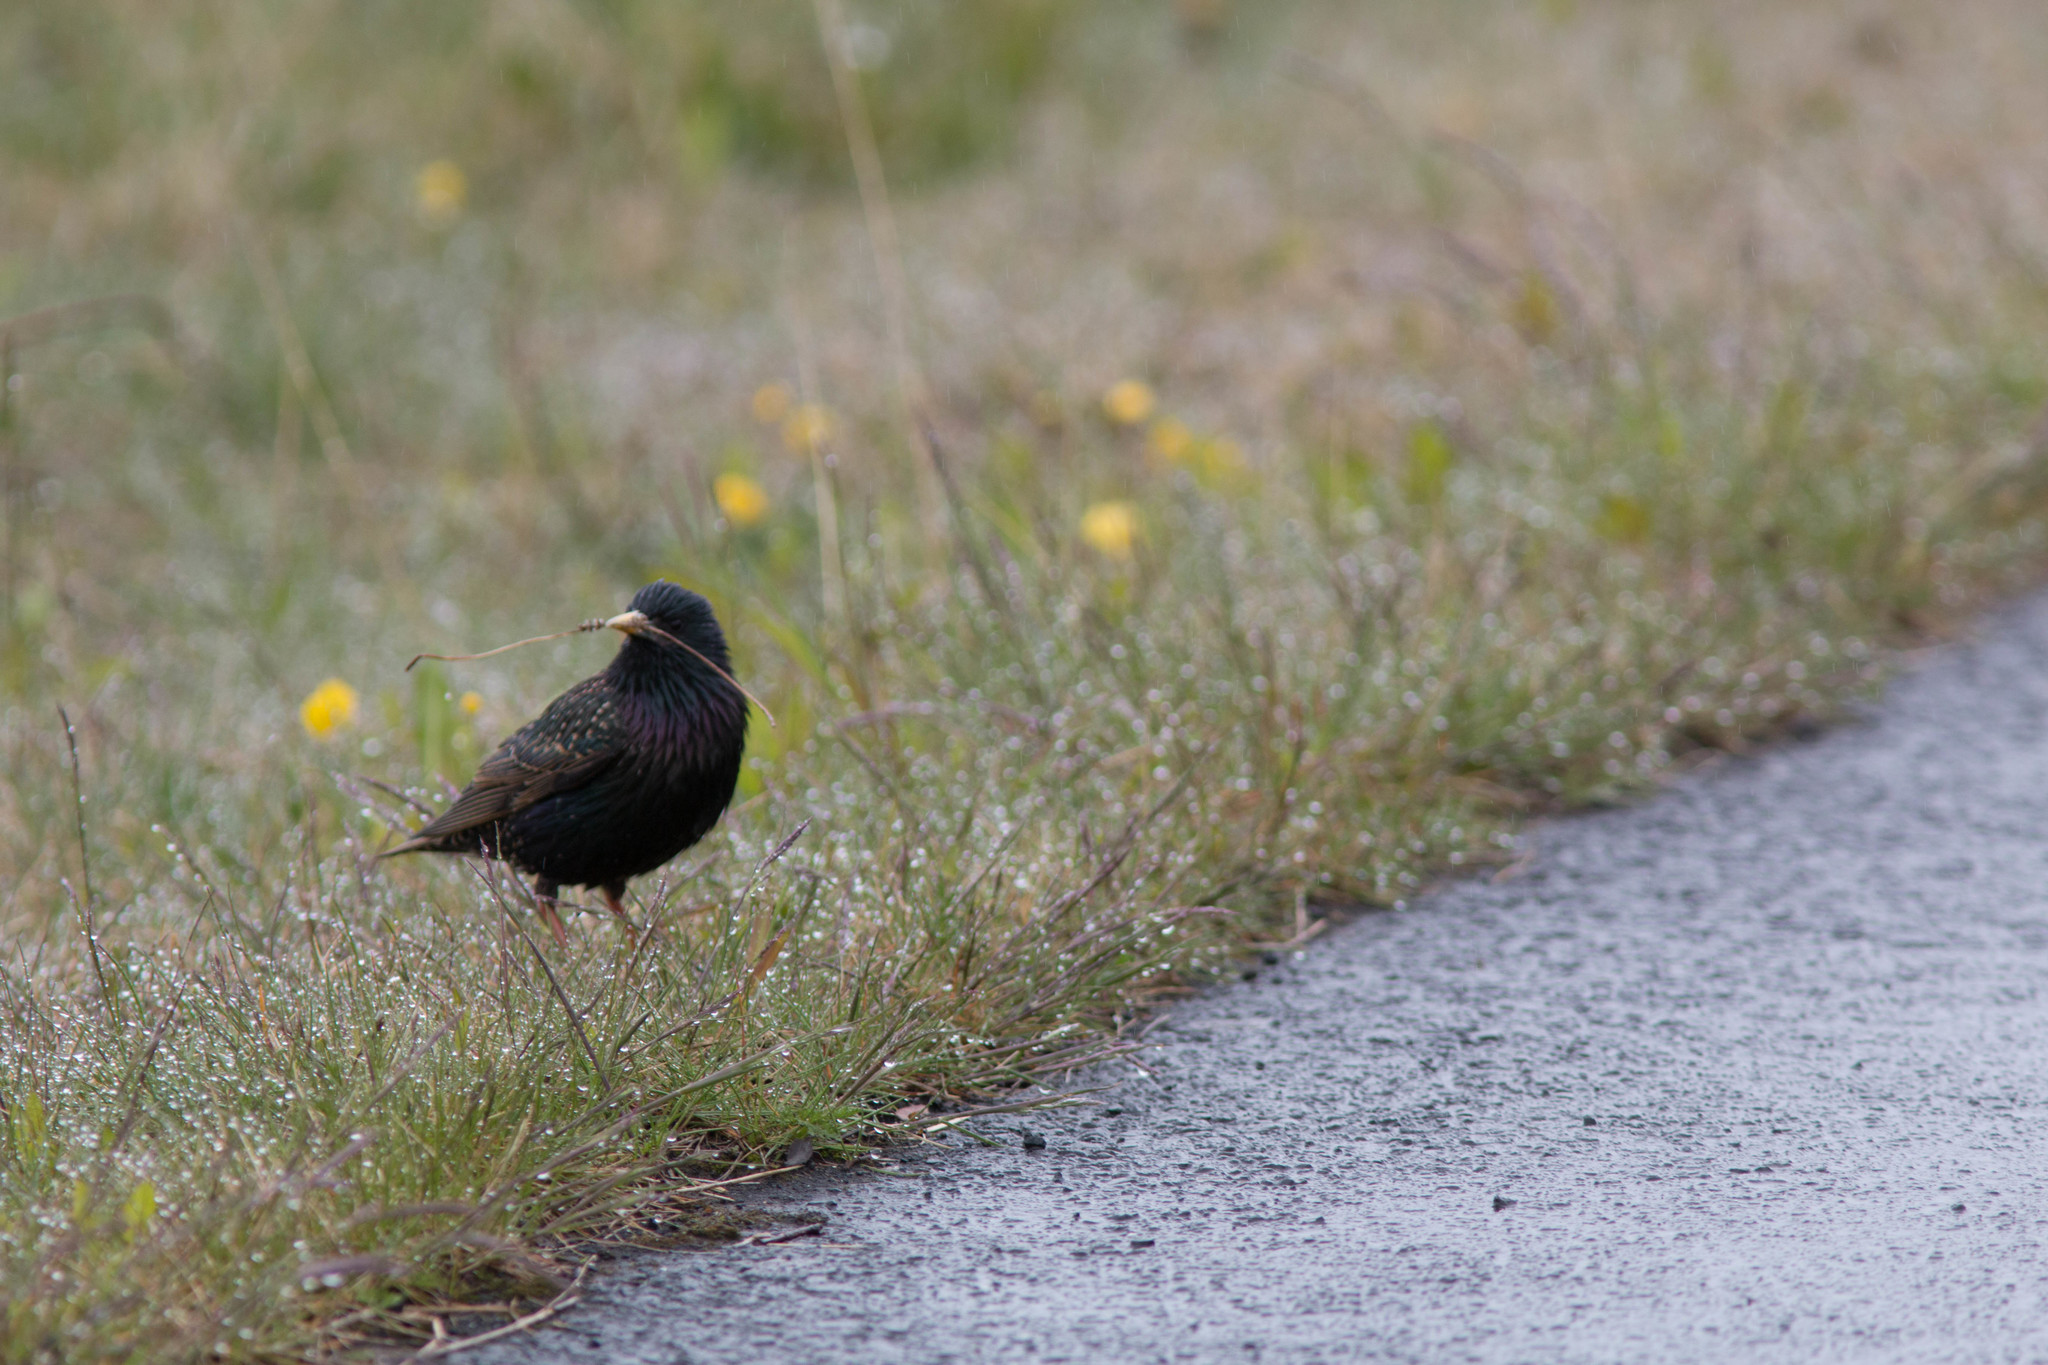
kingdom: Animalia
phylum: Chordata
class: Aves
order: Passeriformes
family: Sturnidae
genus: Sturnus
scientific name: Sturnus vulgaris
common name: Common starling
